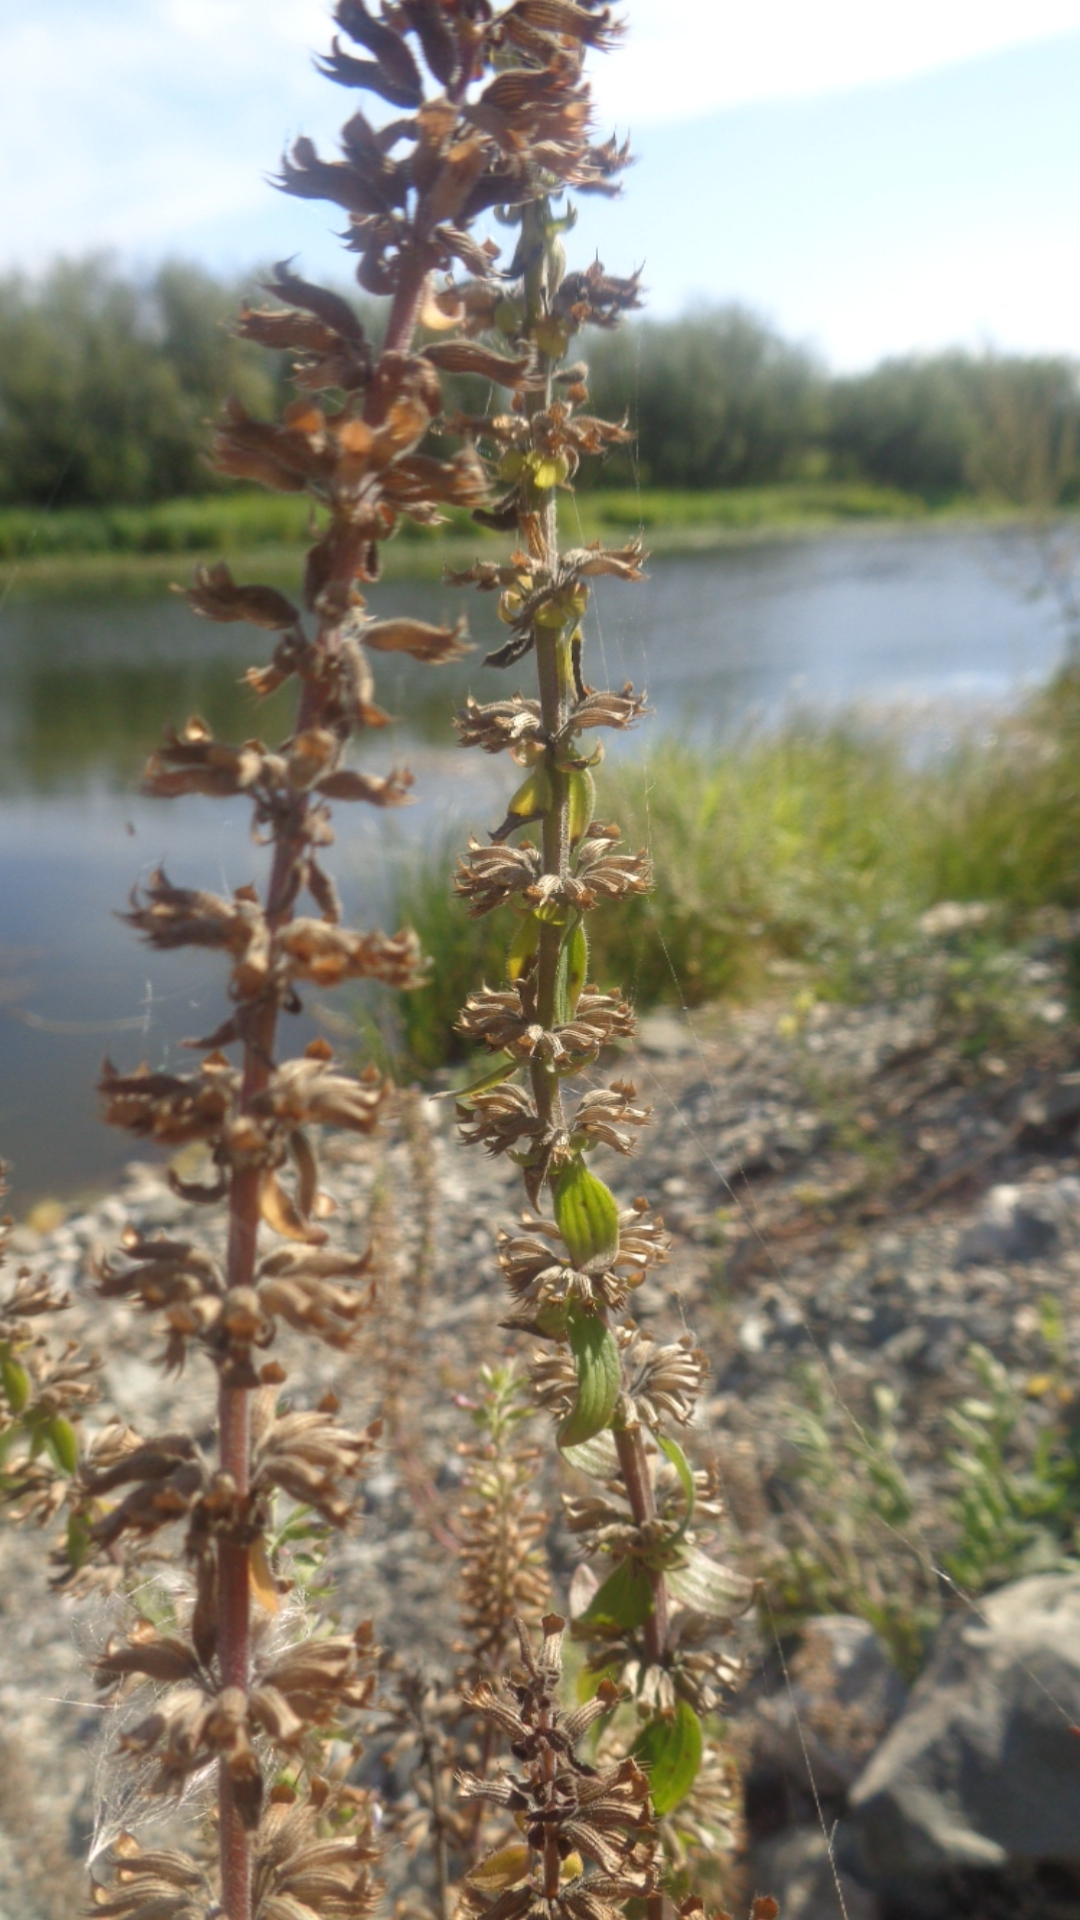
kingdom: Plantae
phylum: Tracheophyta
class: Magnoliopsida
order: Lamiales
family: Lamiaceae
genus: Dracocephalum
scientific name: Dracocephalum thymiflorum
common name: Thymeleaf dragonhead
